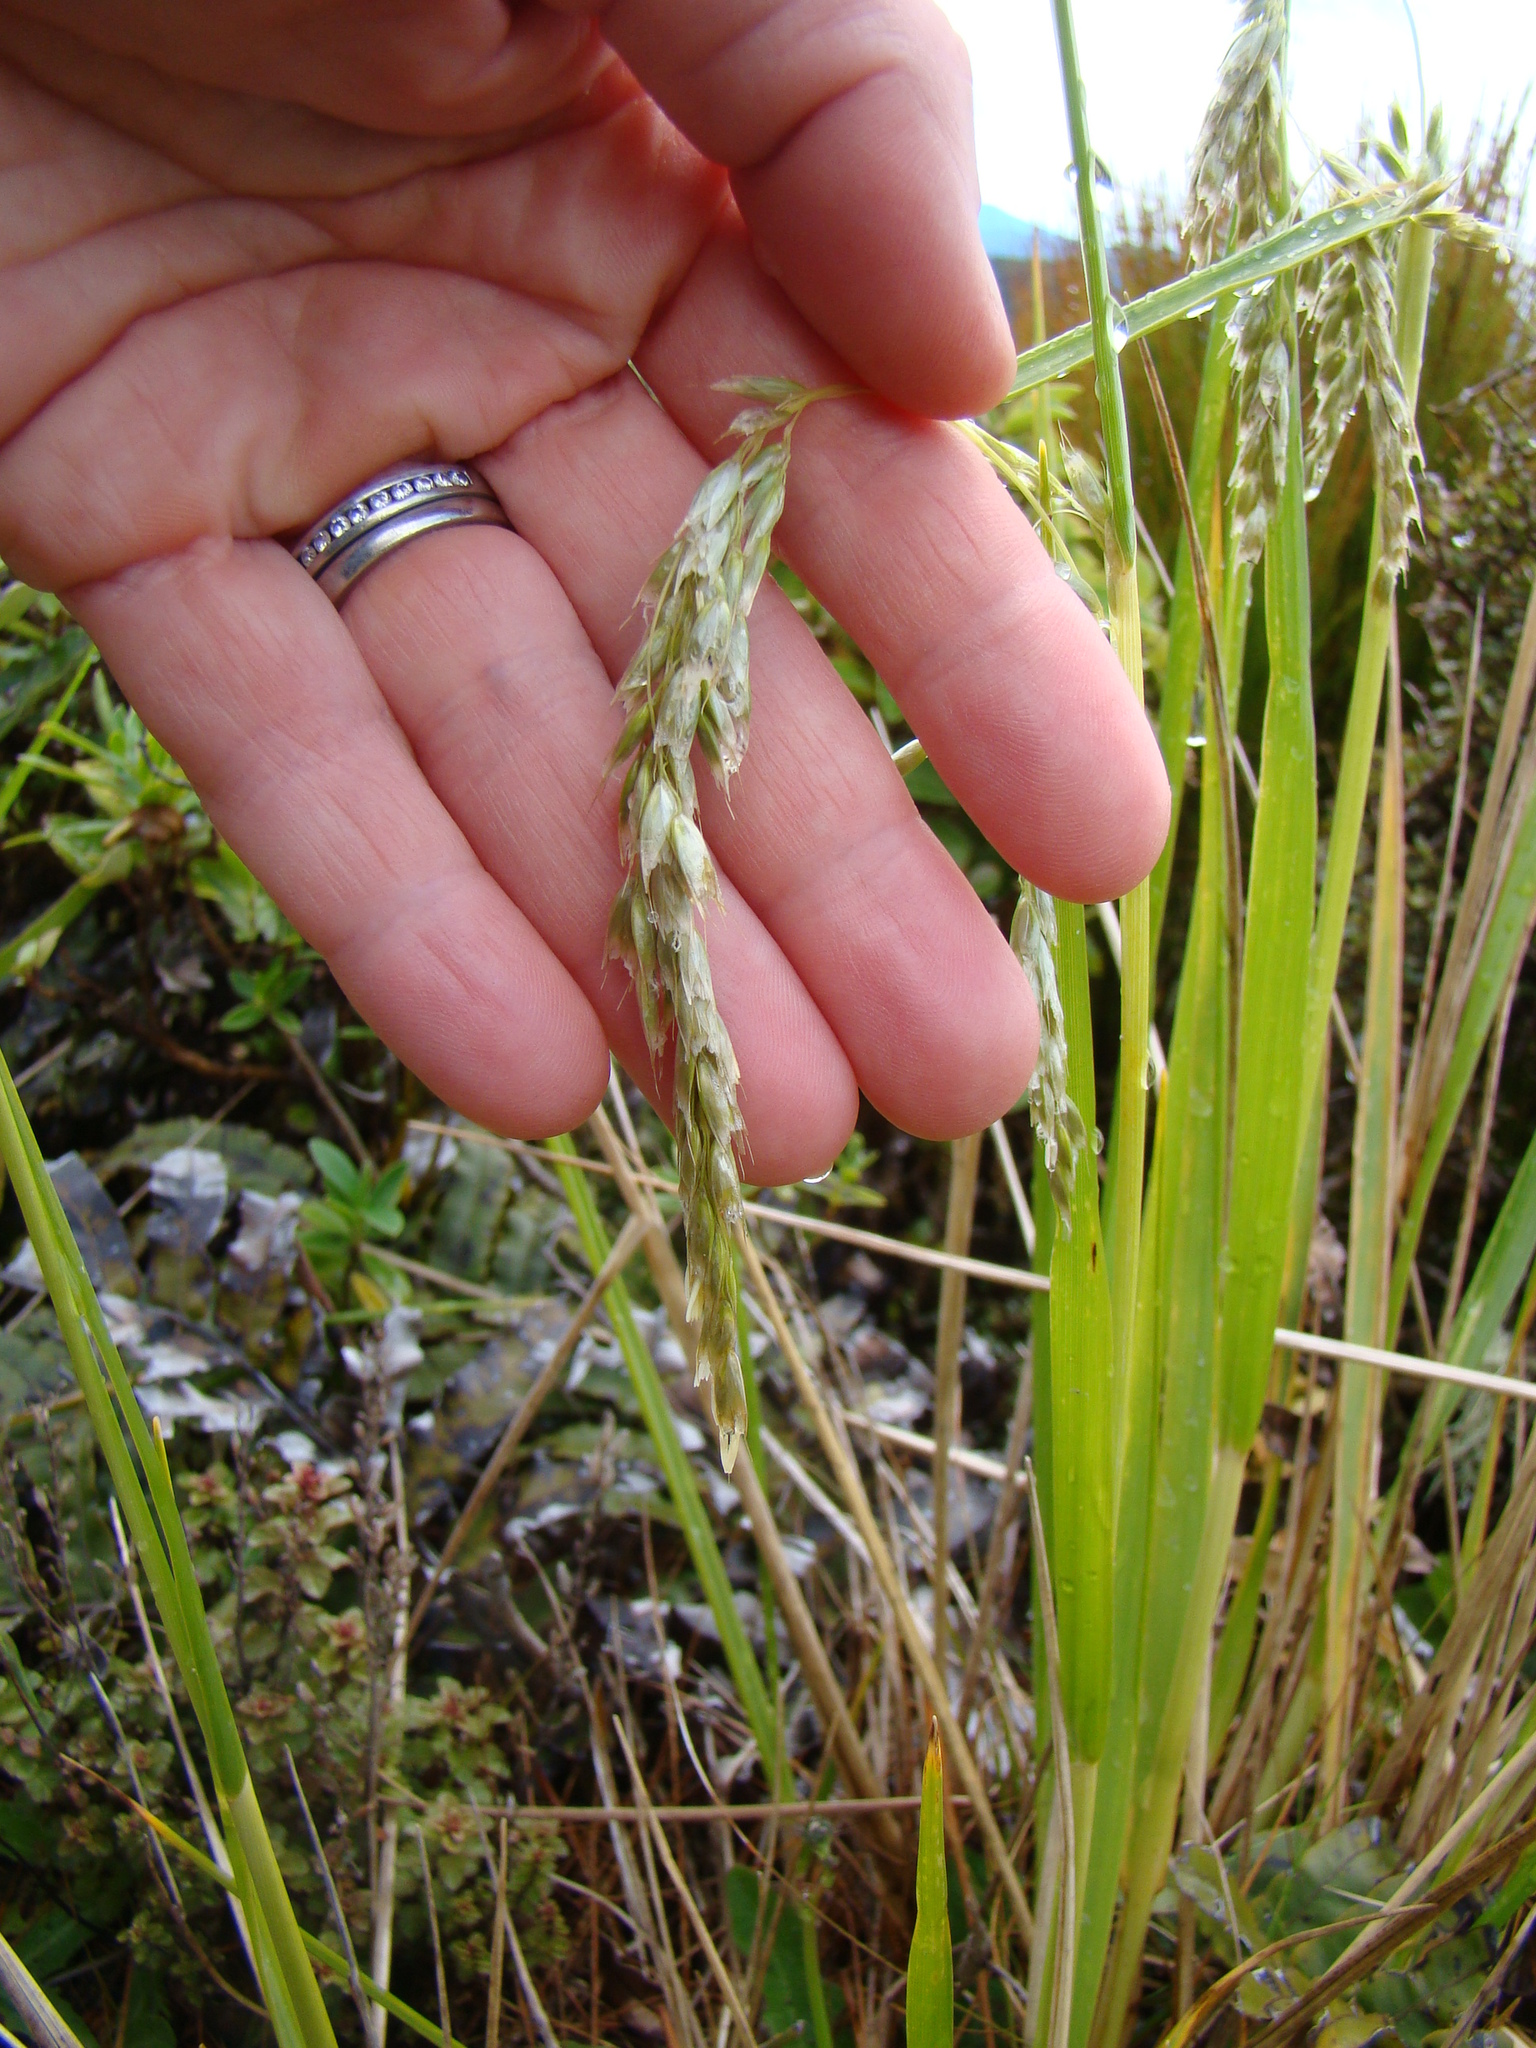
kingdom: Plantae
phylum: Tracheophyta
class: Liliopsida
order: Poales
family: Poaceae
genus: Anthoxanthum
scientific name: Anthoxanthum redolens
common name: Sweet holy grass
